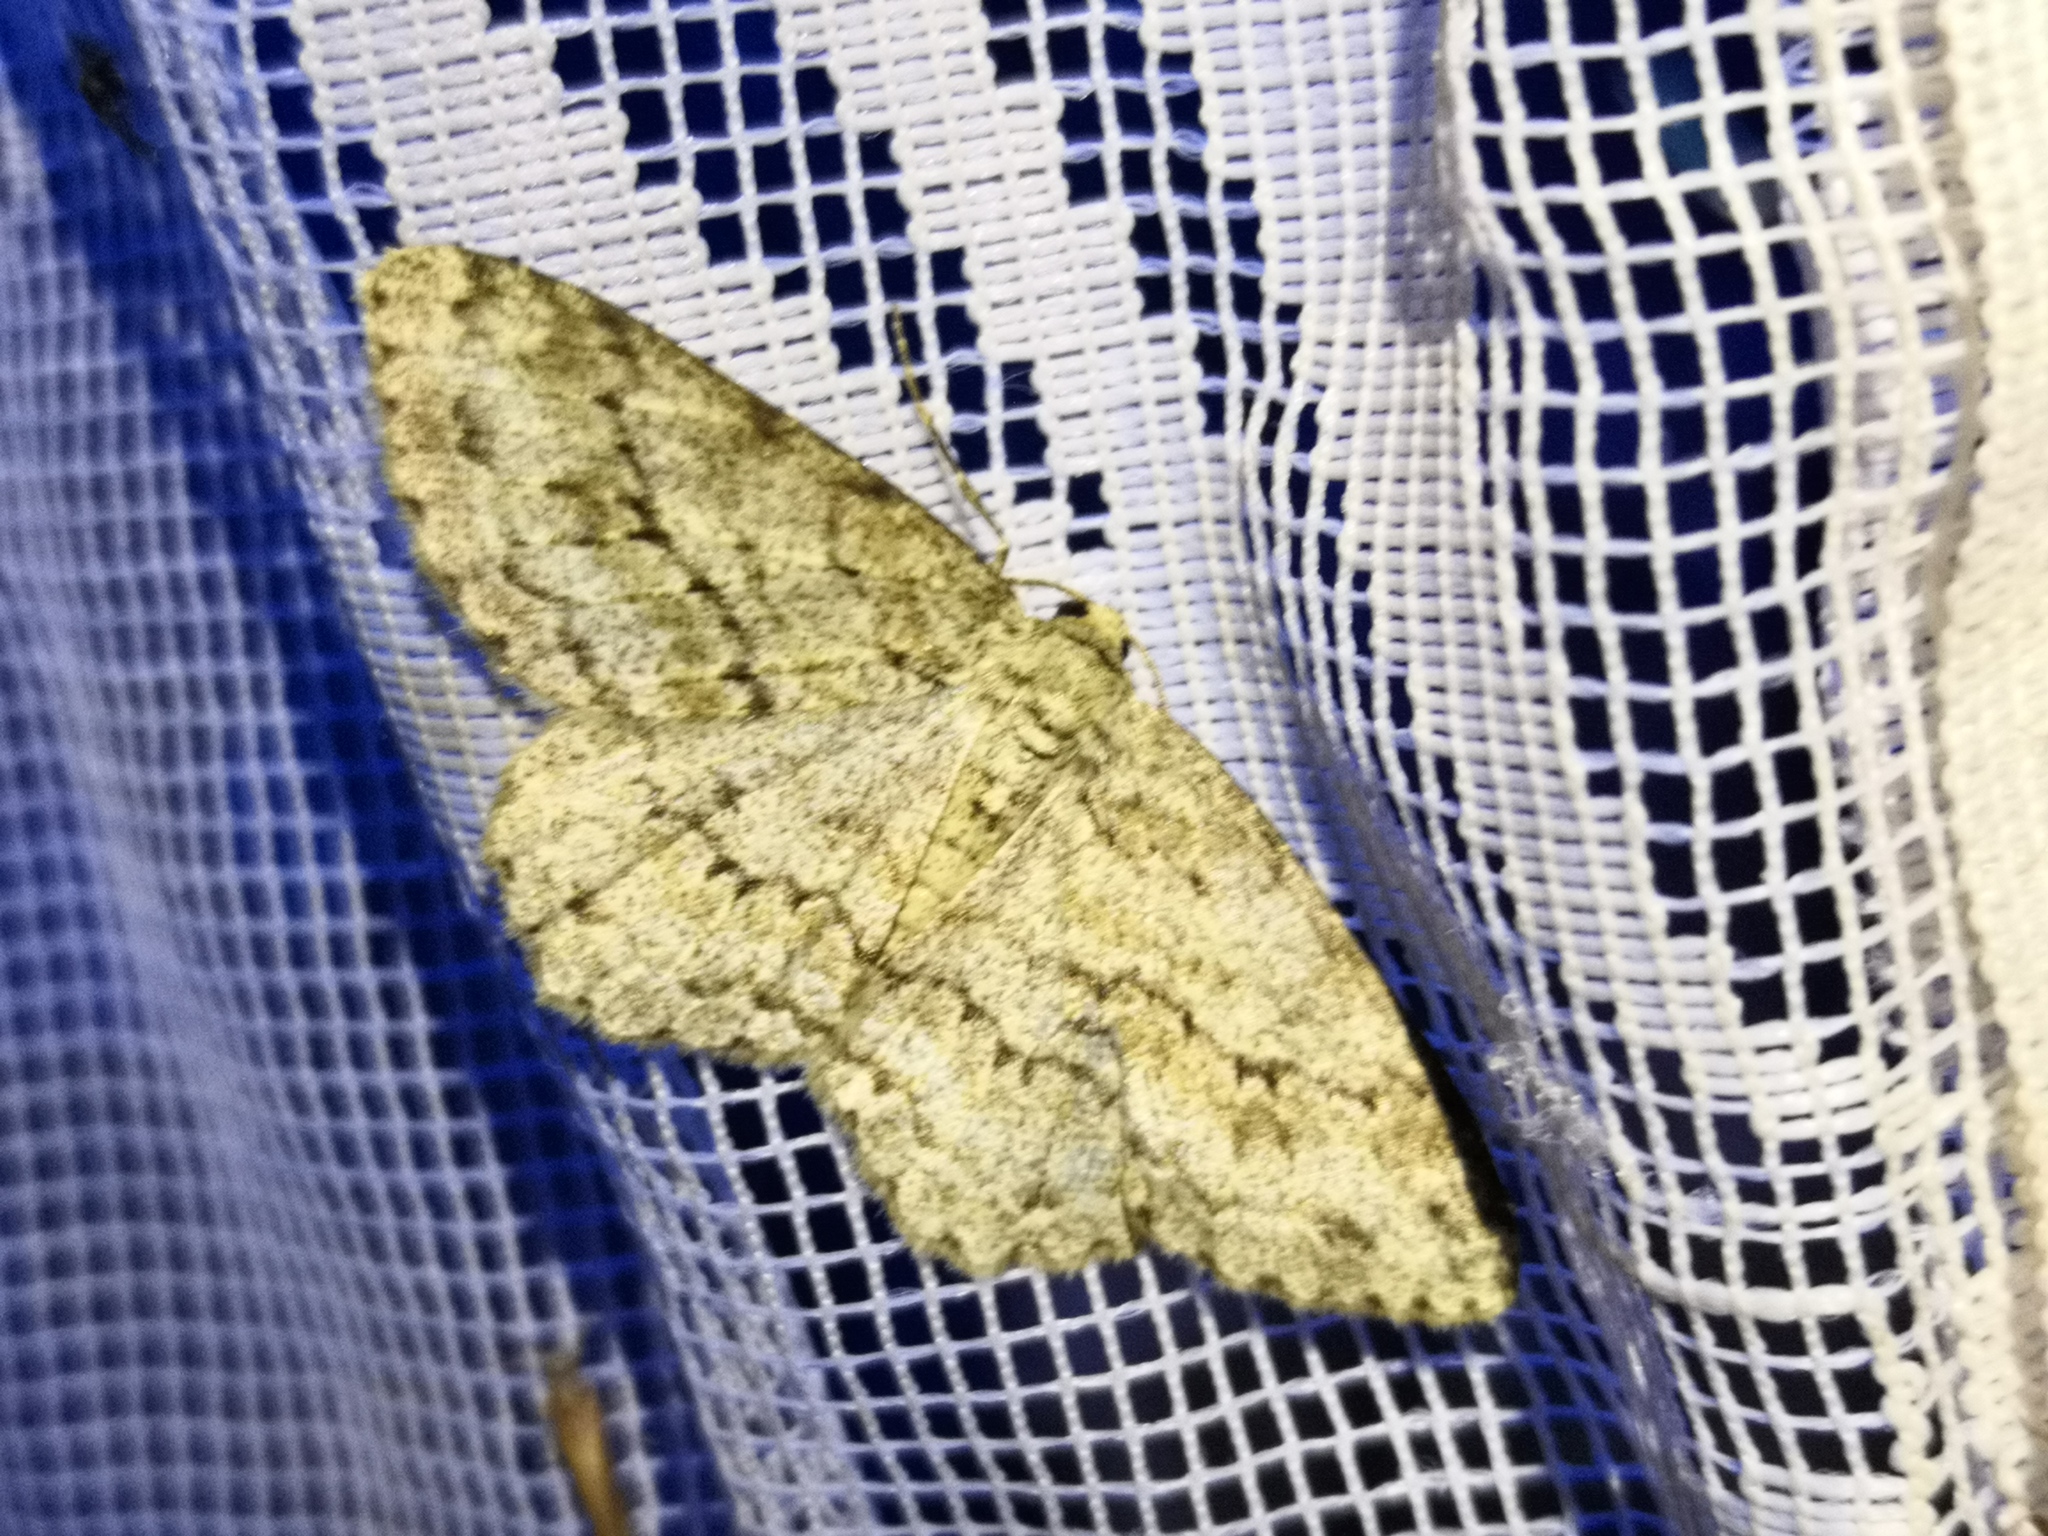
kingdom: Animalia
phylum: Arthropoda
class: Insecta
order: Lepidoptera
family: Geometridae
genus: Ectropis
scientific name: Ectropis crepuscularia
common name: Engrailed
